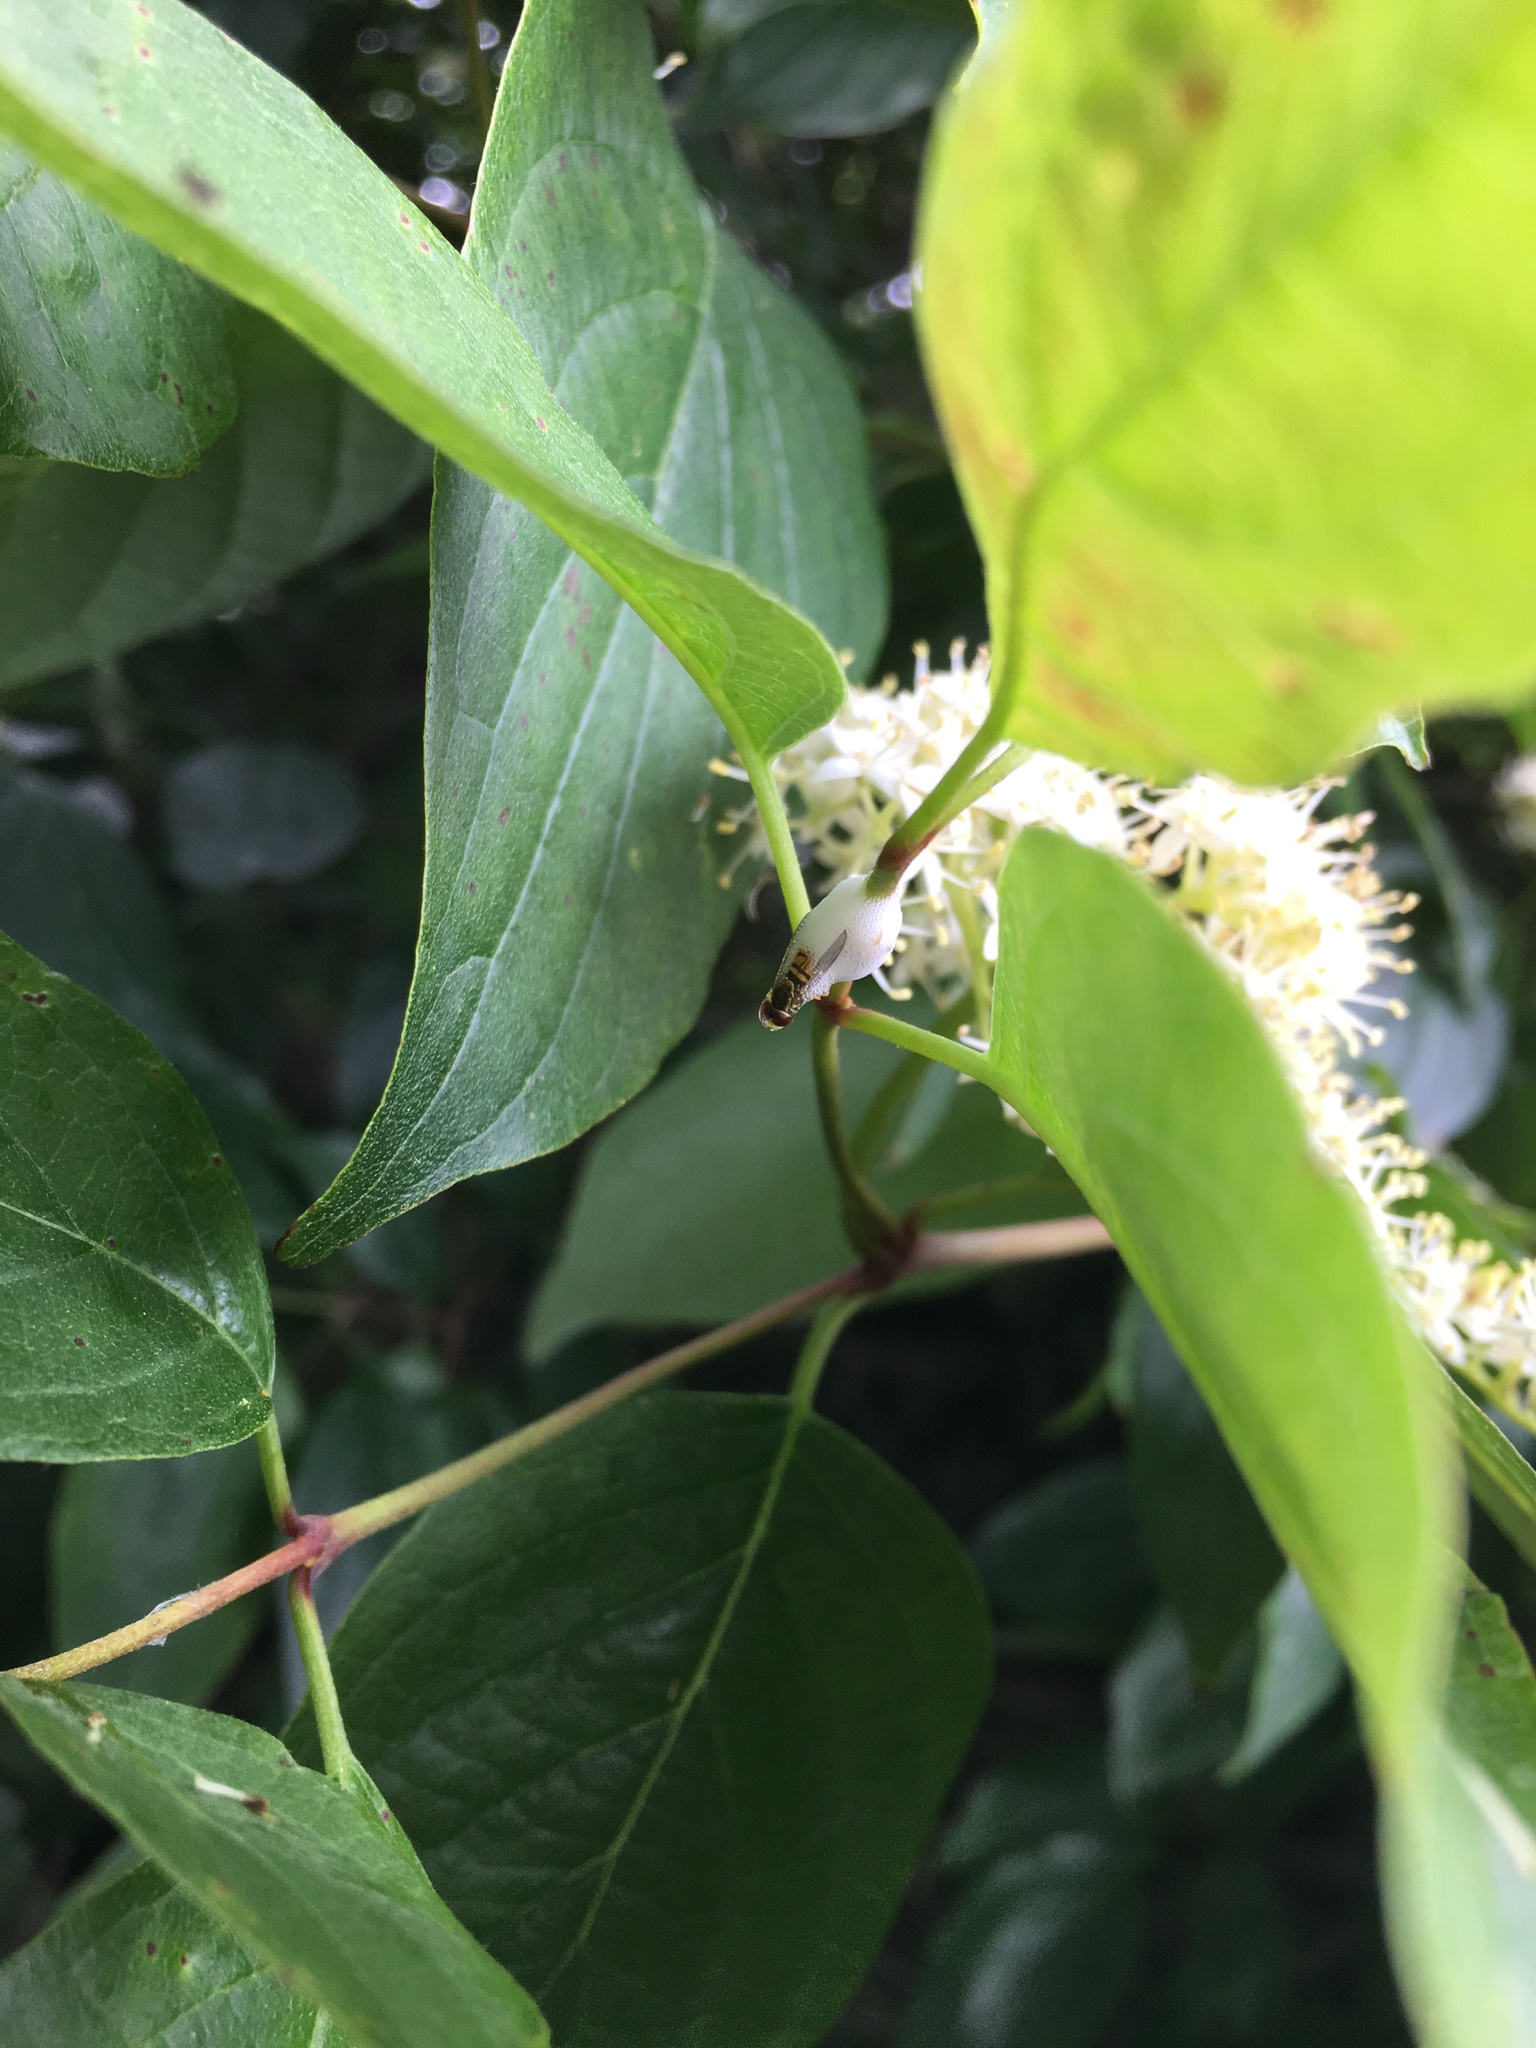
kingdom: Animalia
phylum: Arthropoda
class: Insecta
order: Diptera
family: Syrphidae
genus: Toxomerus
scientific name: Toxomerus marginatus
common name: Syrphid fly
